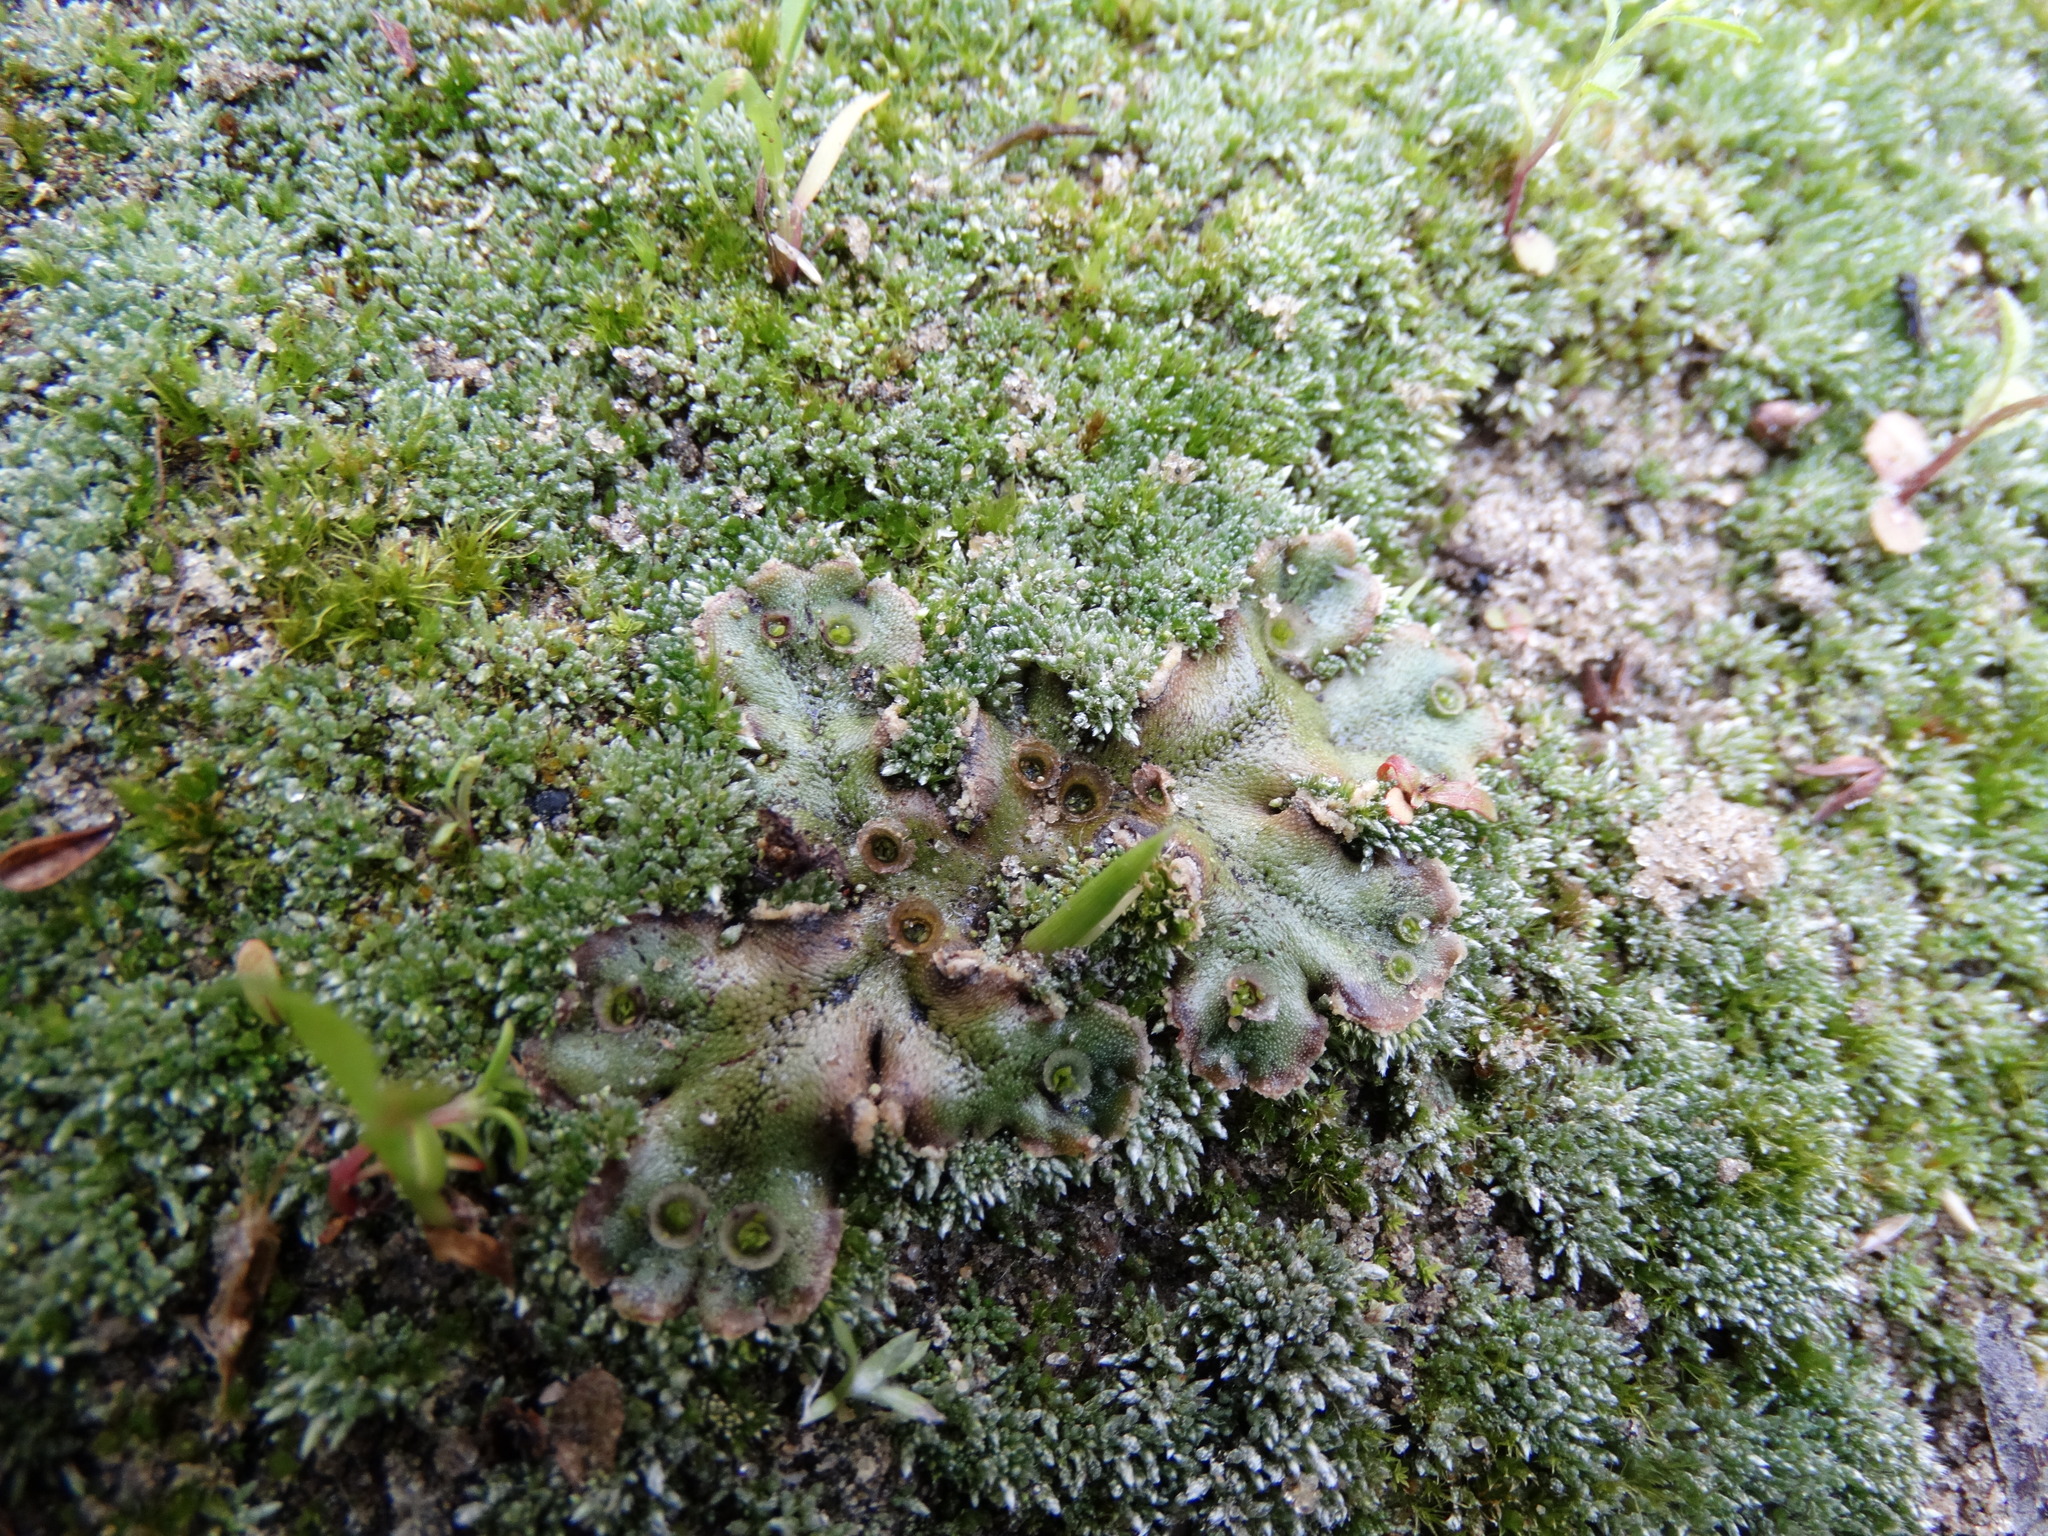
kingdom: Plantae
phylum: Marchantiophyta
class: Marchantiopsida
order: Marchantiales
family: Marchantiaceae
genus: Marchantia
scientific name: Marchantia polymorpha
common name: Common liverwort
